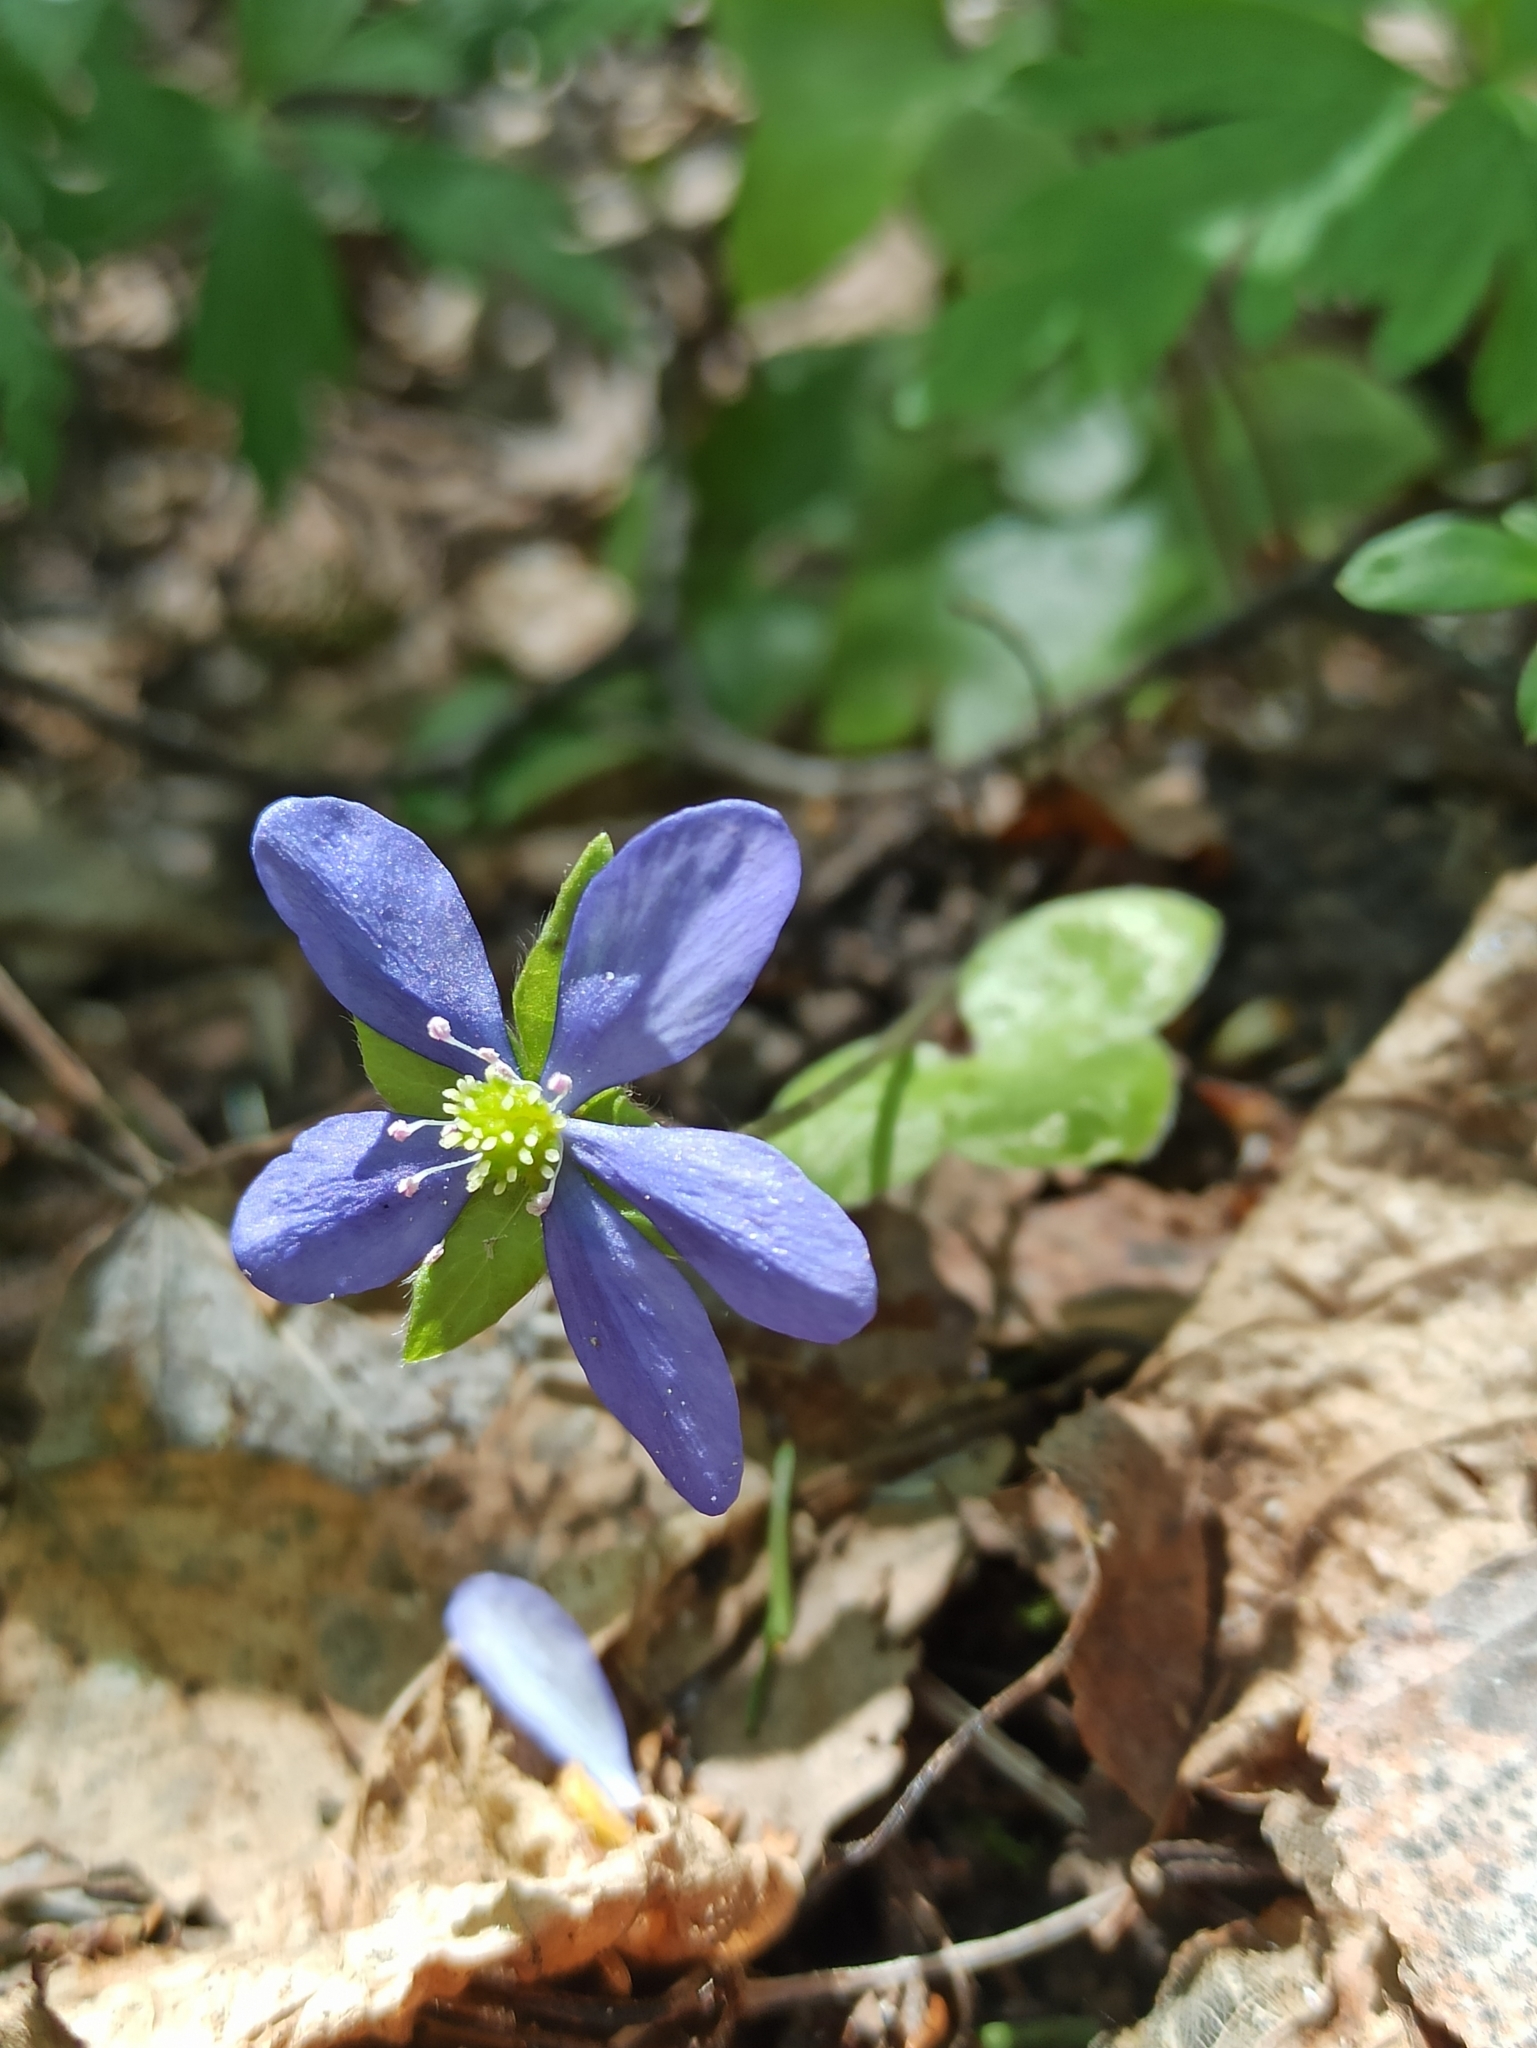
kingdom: Plantae
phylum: Tracheophyta
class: Magnoliopsida
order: Ranunculales
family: Ranunculaceae
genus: Hepatica
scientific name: Hepatica nobilis
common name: Liverleaf
